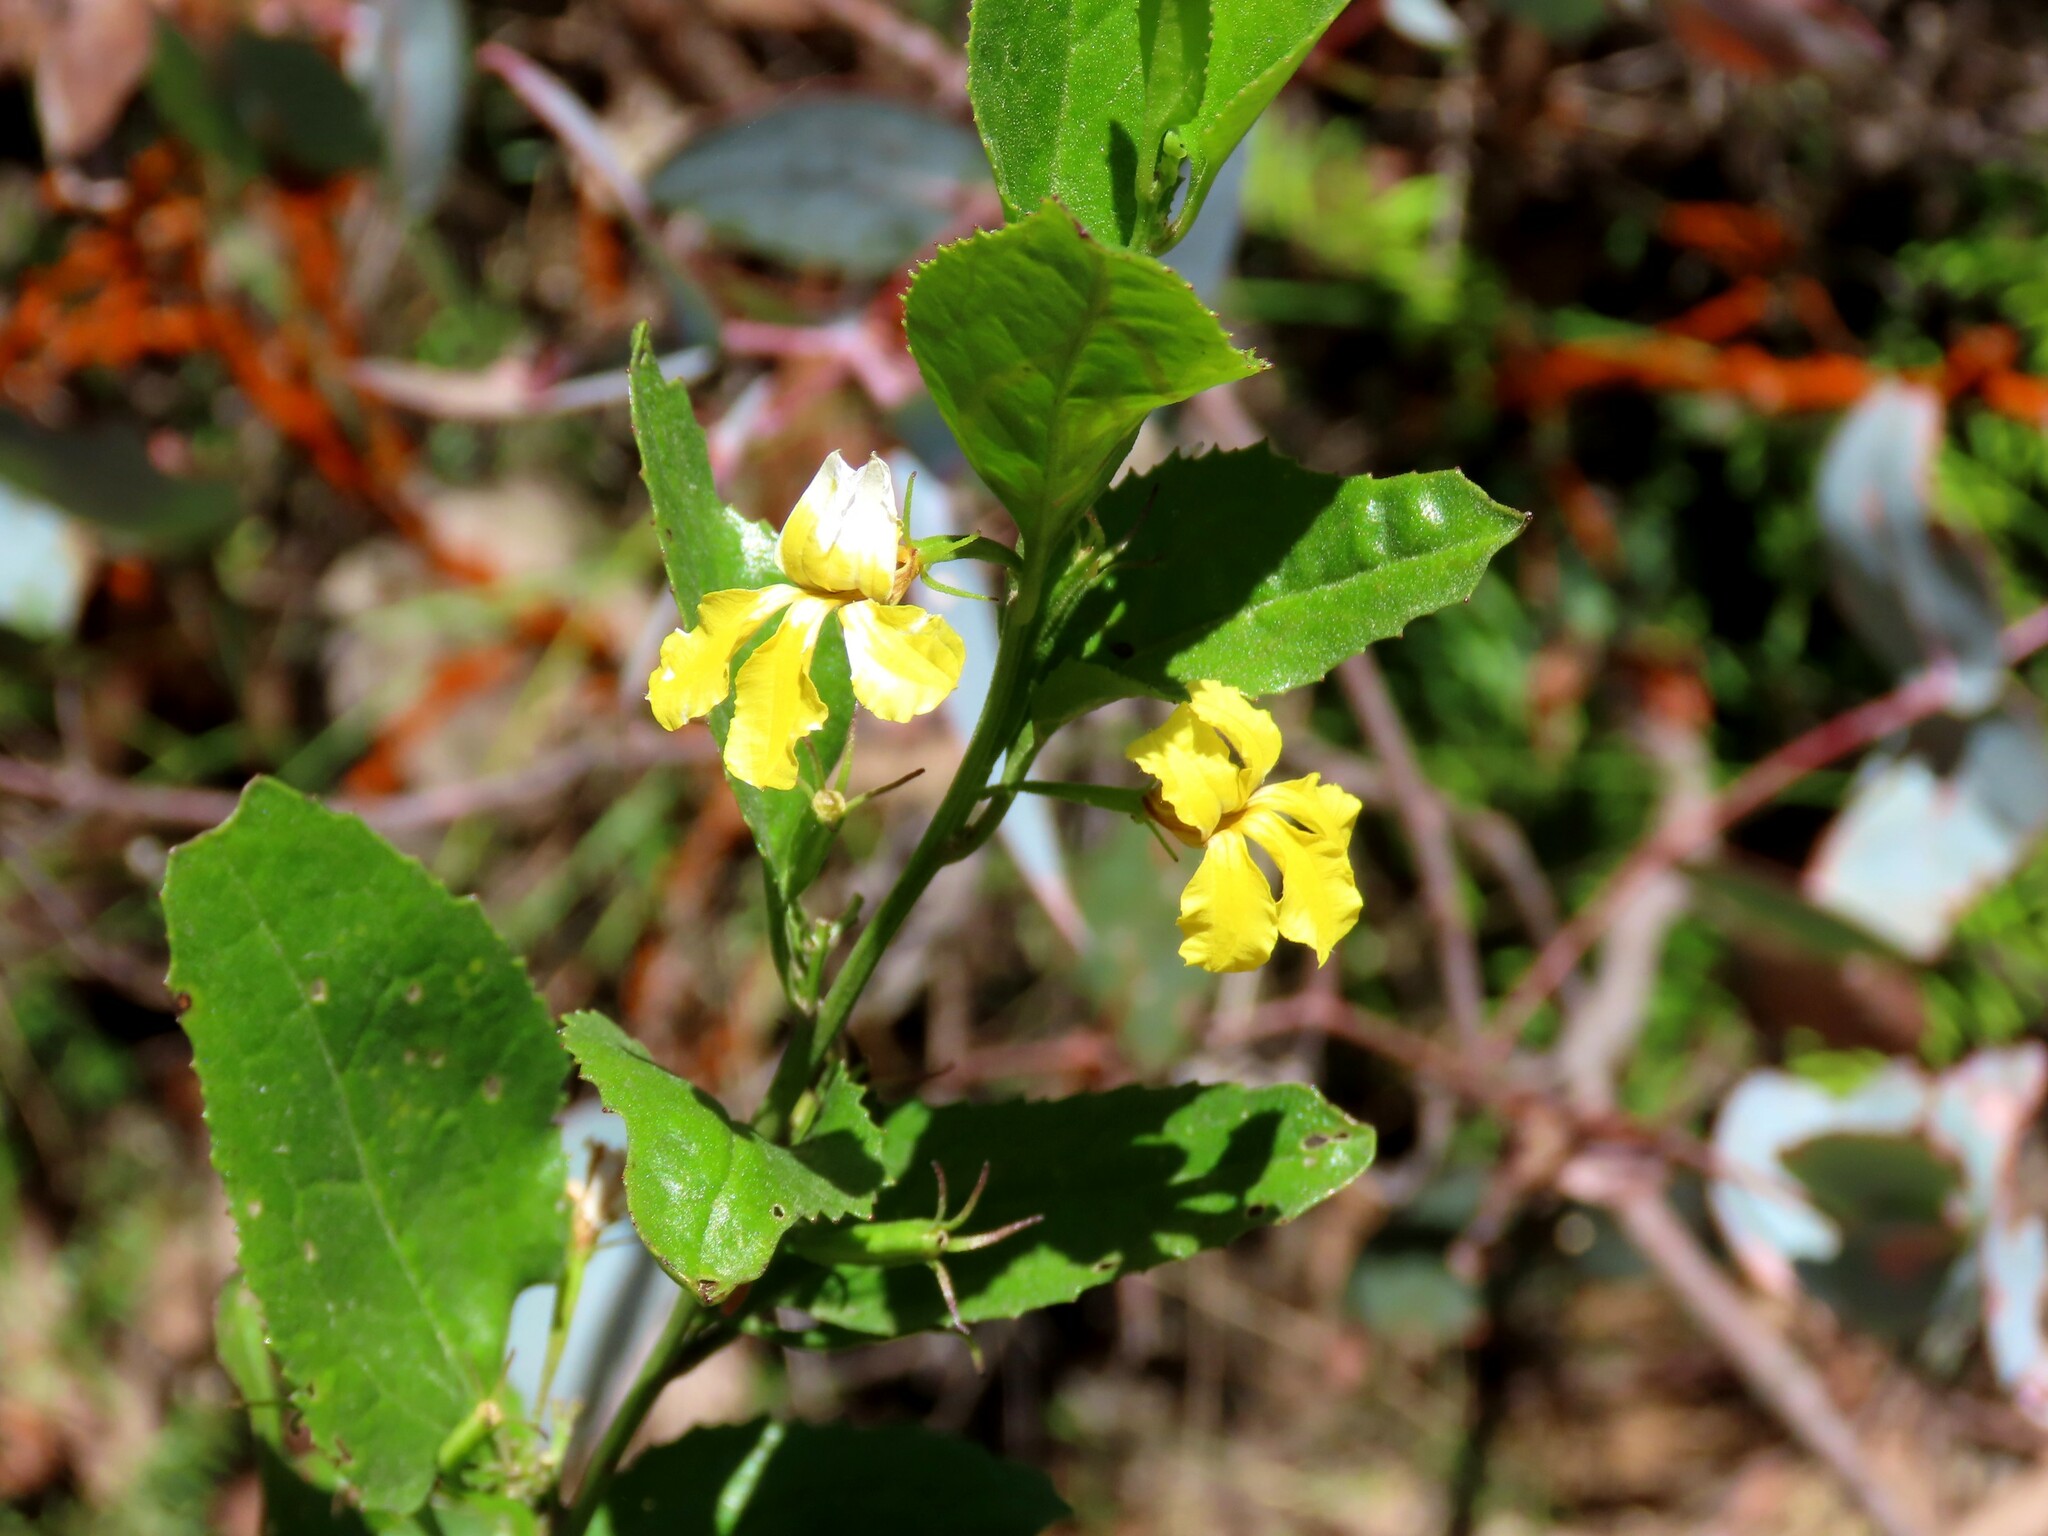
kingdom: Plantae
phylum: Tracheophyta
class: Magnoliopsida
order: Asterales
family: Goodeniaceae
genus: Goodenia
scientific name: Goodenia ovata
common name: Hop goodenia
